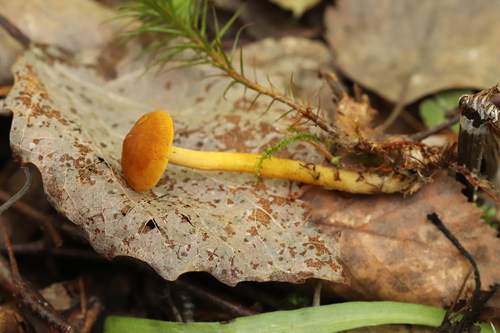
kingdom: Fungi
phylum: Basidiomycota
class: Agaricomycetes
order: Agaricales
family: Lyophyllaceae
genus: Calocybe
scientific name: Calocybe naucoria
